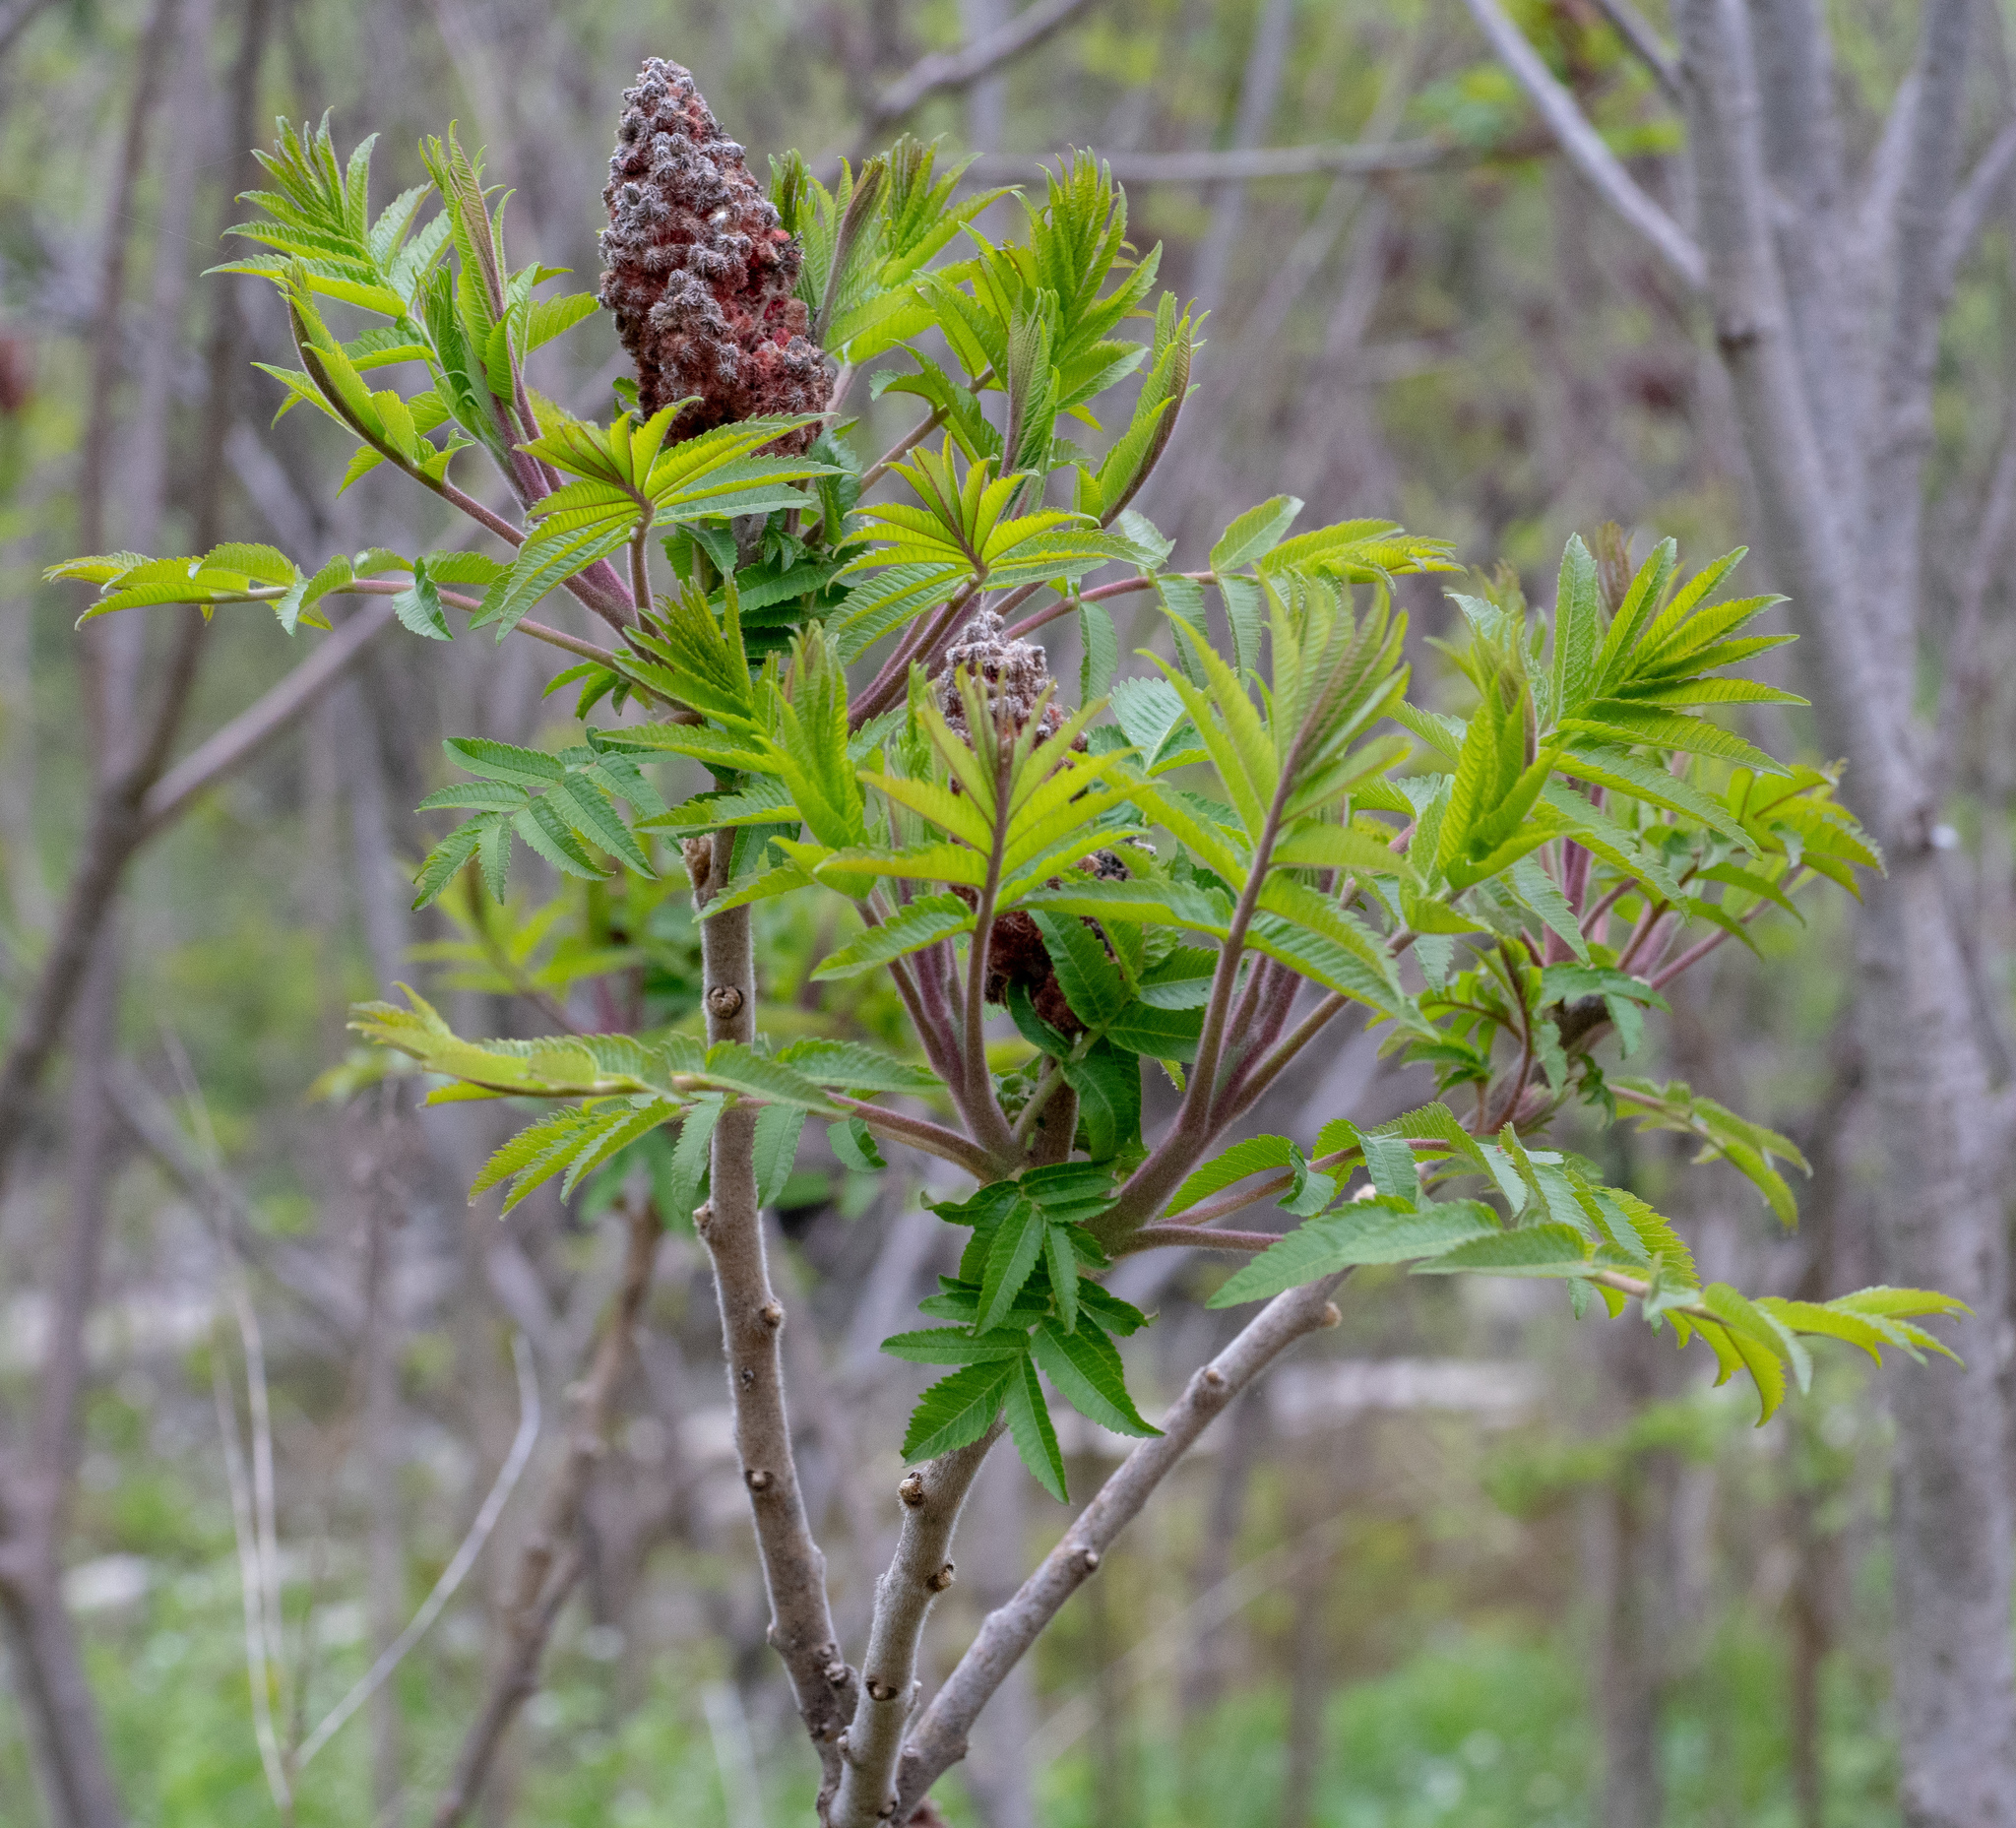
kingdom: Plantae
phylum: Tracheophyta
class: Magnoliopsida
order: Sapindales
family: Anacardiaceae
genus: Rhus
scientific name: Rhus typhina
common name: Staghorn sumac
